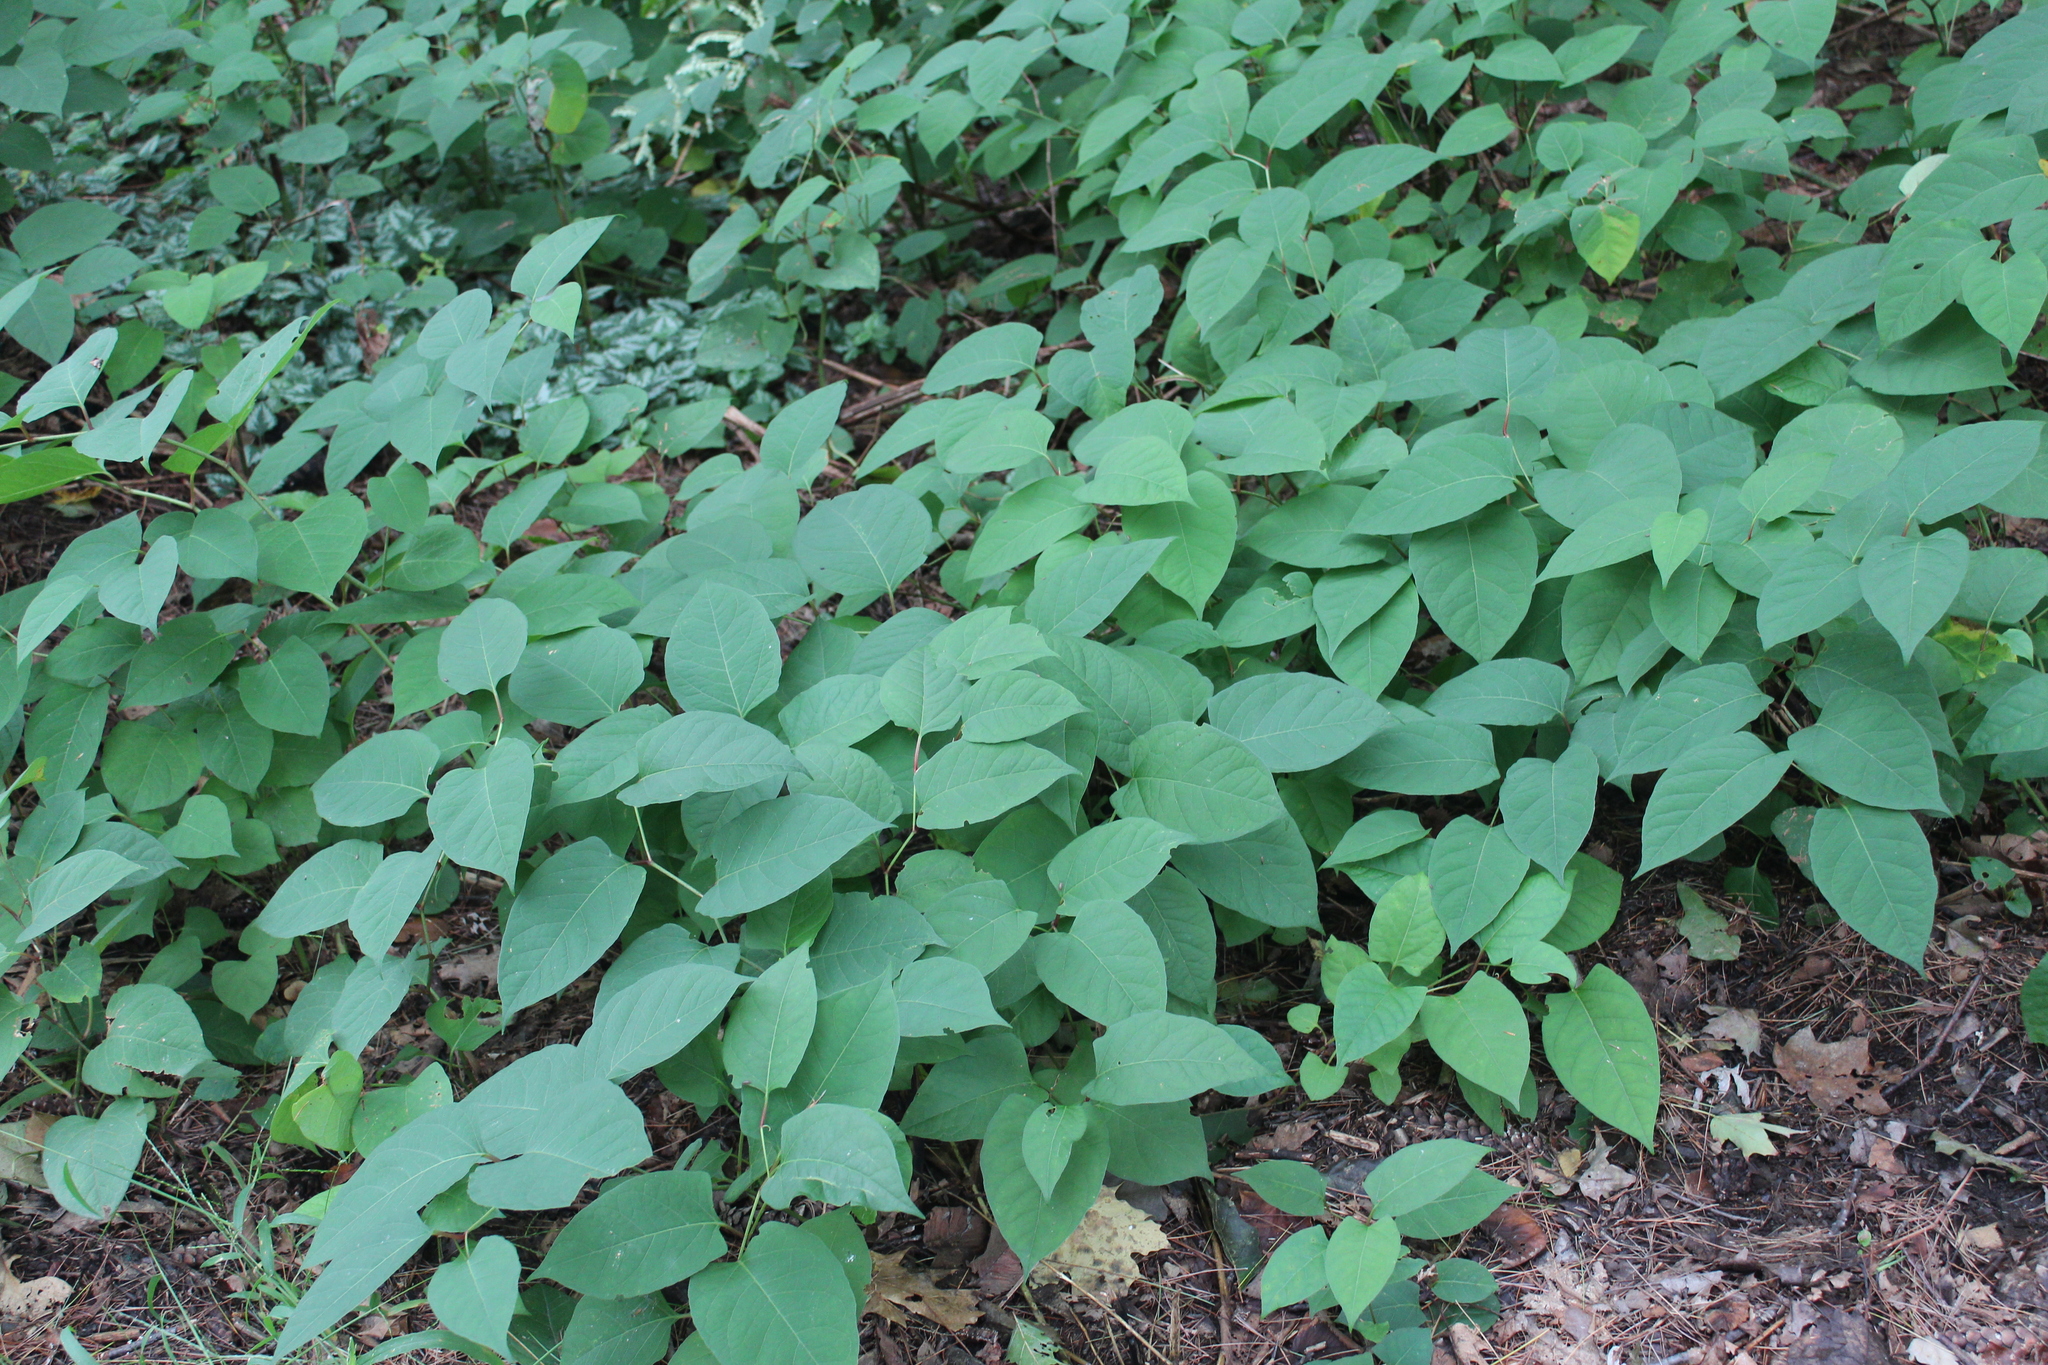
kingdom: Plantae
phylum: Tracheophyta
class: Magnoliopsida
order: Caryophyllales
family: Polygonaceae
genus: Reynoutria
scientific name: Reynoutria japonica
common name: Japanese knotweed
